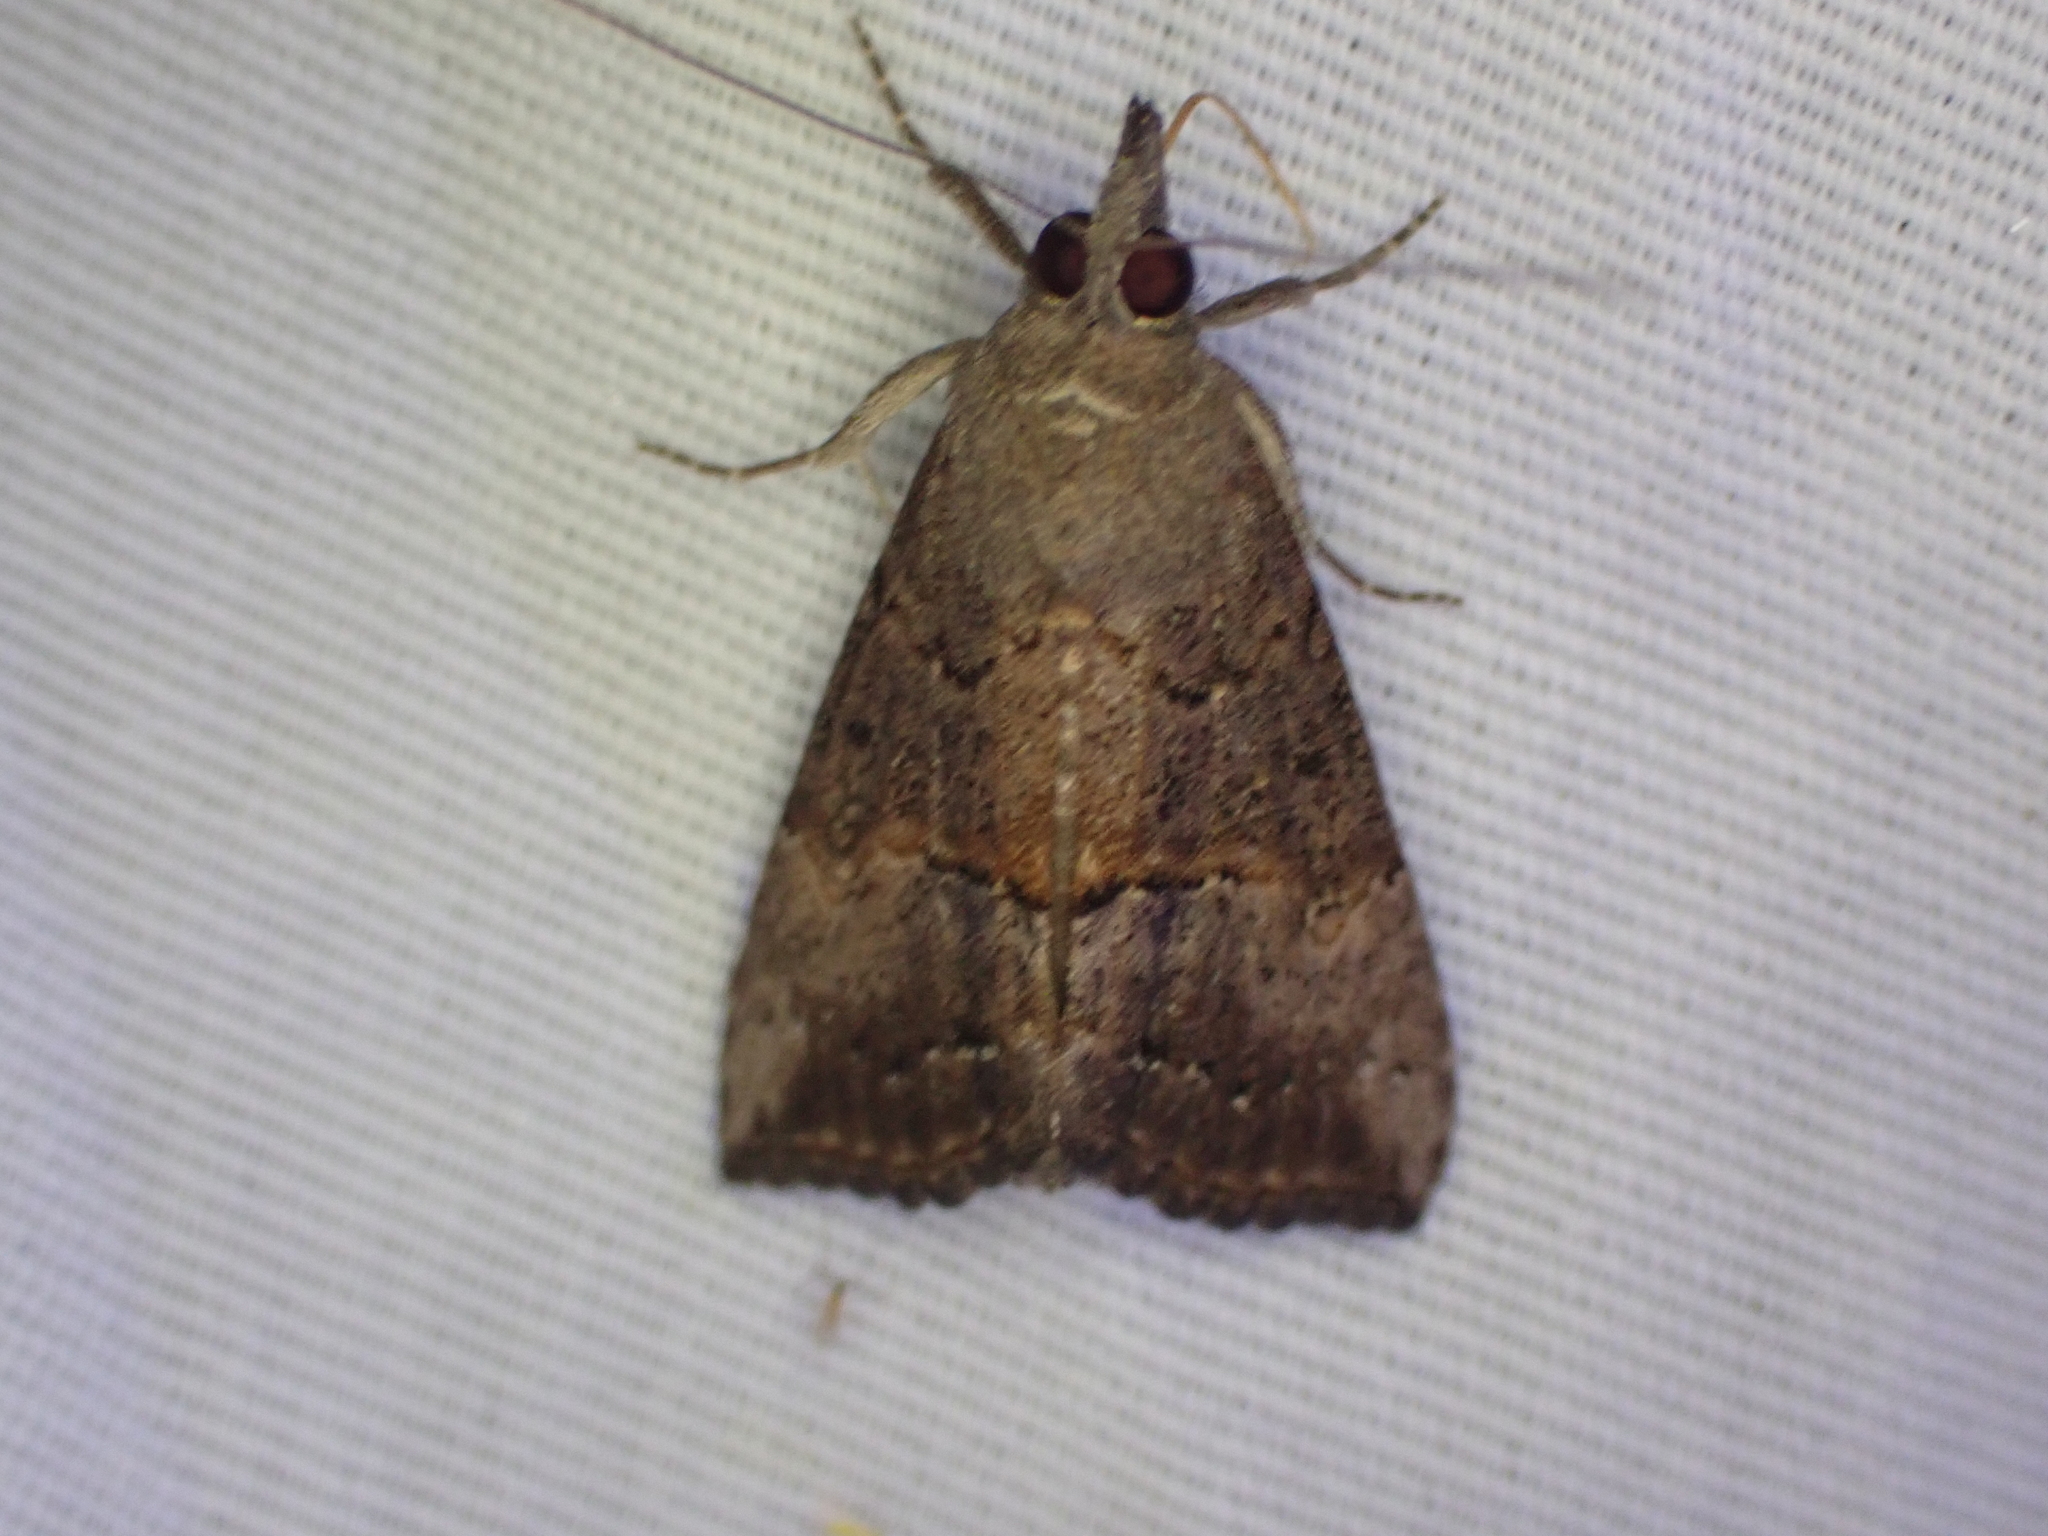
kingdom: Animalia
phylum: Arthropoda
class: Insecta
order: Lepidoptera
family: Erebidae
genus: Hypena
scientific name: Hypena scabra
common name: Green cloverworm
